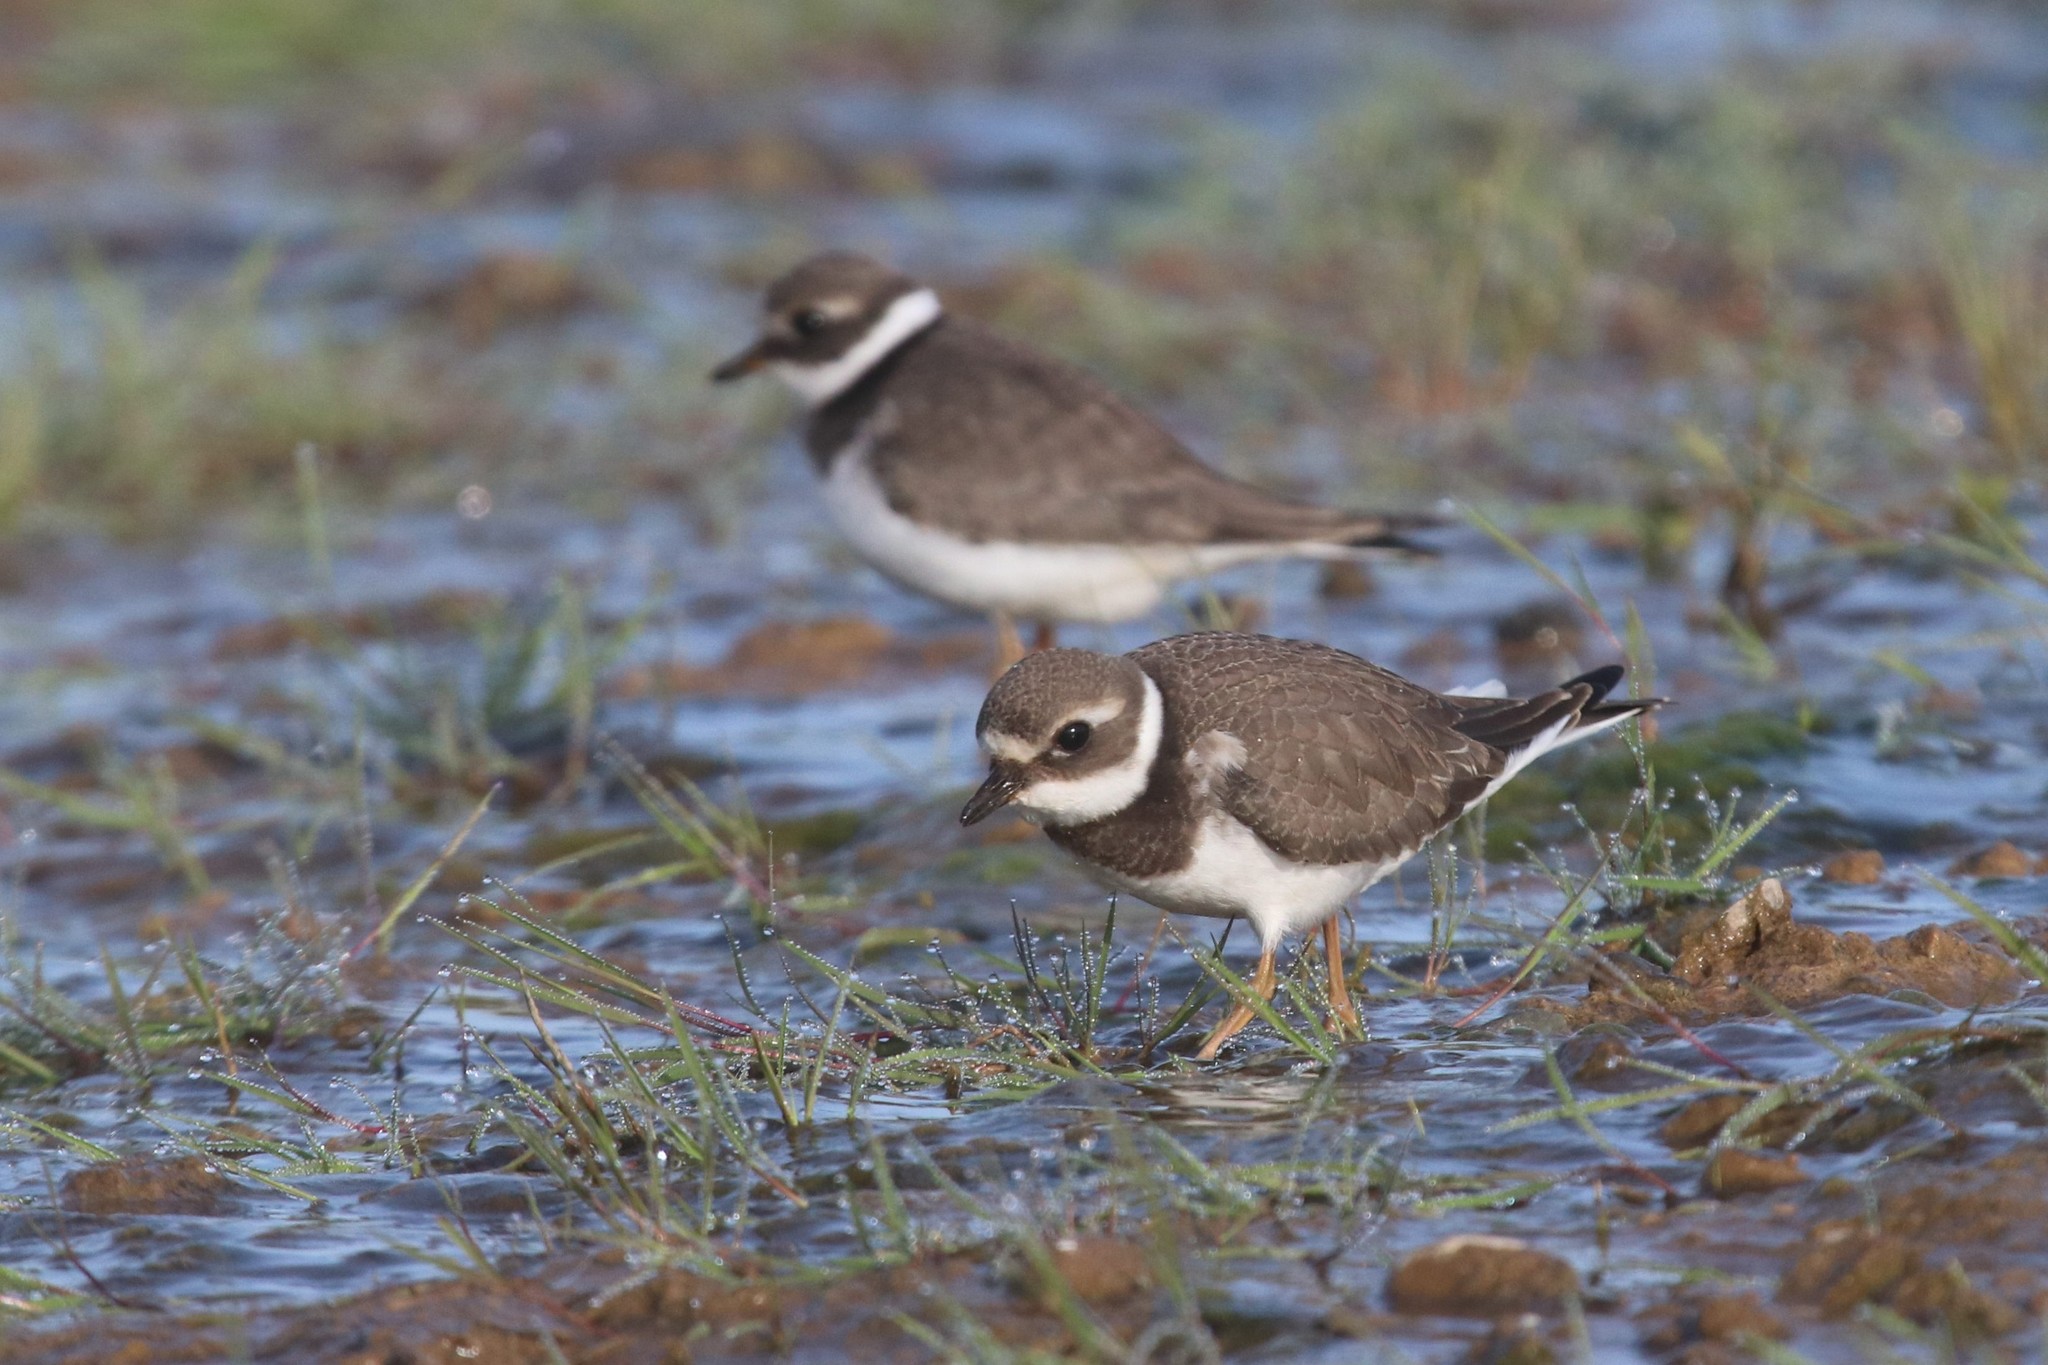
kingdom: Animalia
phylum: Chordata
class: Aves
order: Charadriiformes
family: Charadriidae
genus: Charadrius
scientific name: Charadrius hiaticula
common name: Common ringed plover
